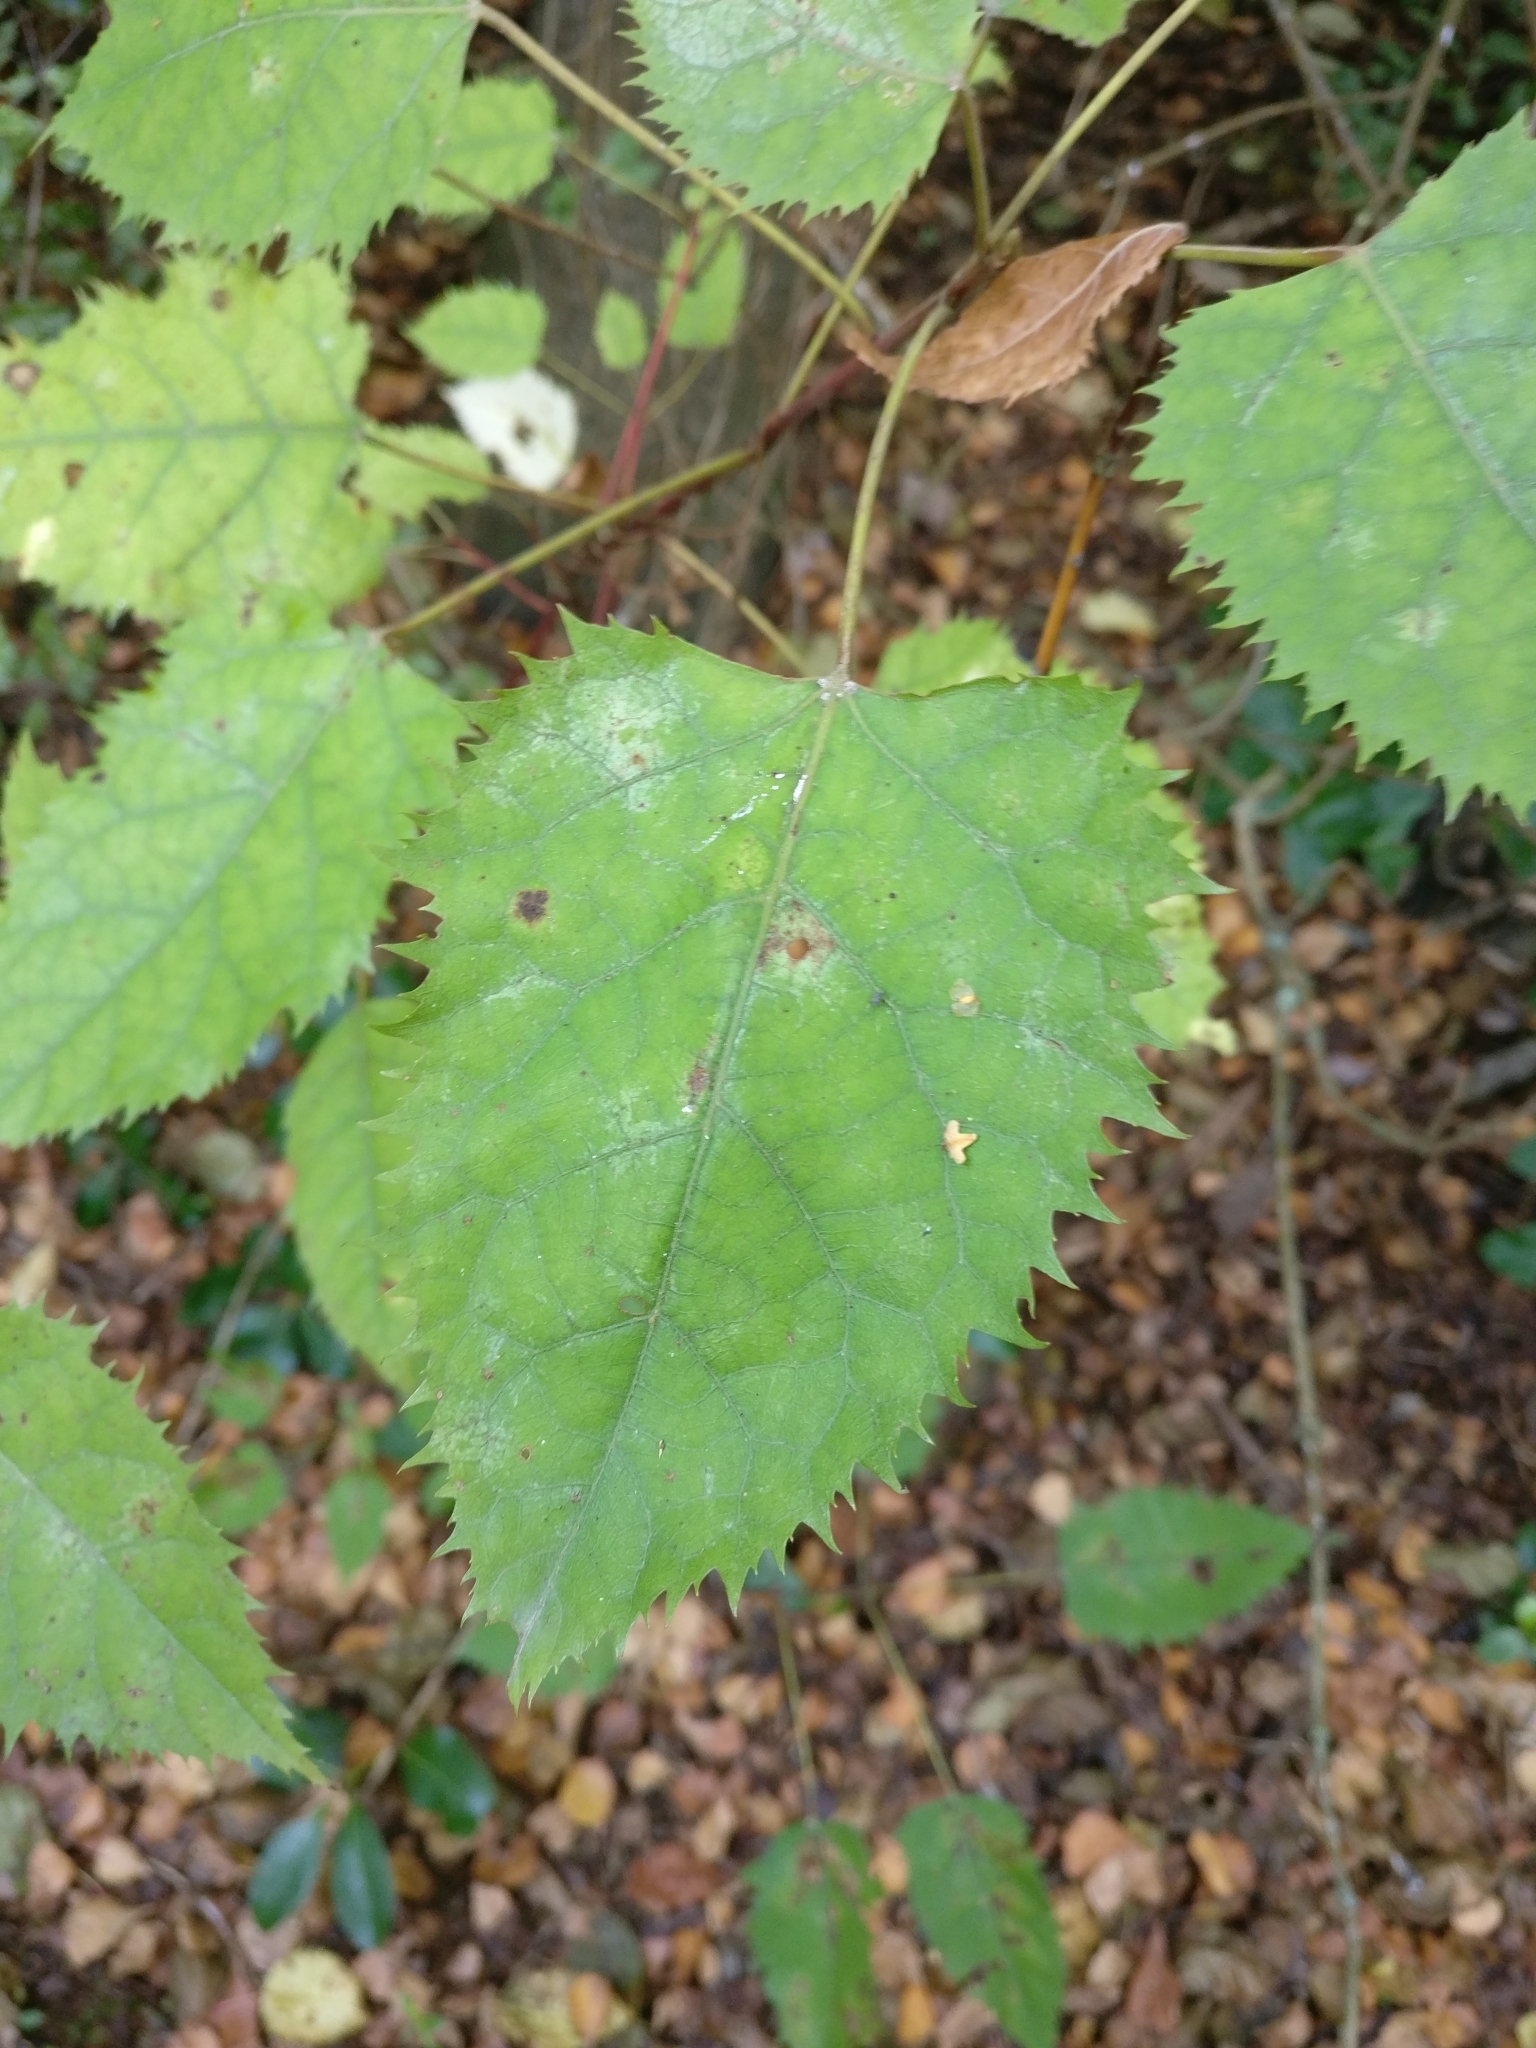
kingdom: Plantae
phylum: Tracheophyta
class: Magnoliopsida
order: Oxalidales
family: Elaeocarpaceae
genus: Aristotelia
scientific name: Aristotelia serrata
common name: New zealand wineberry
